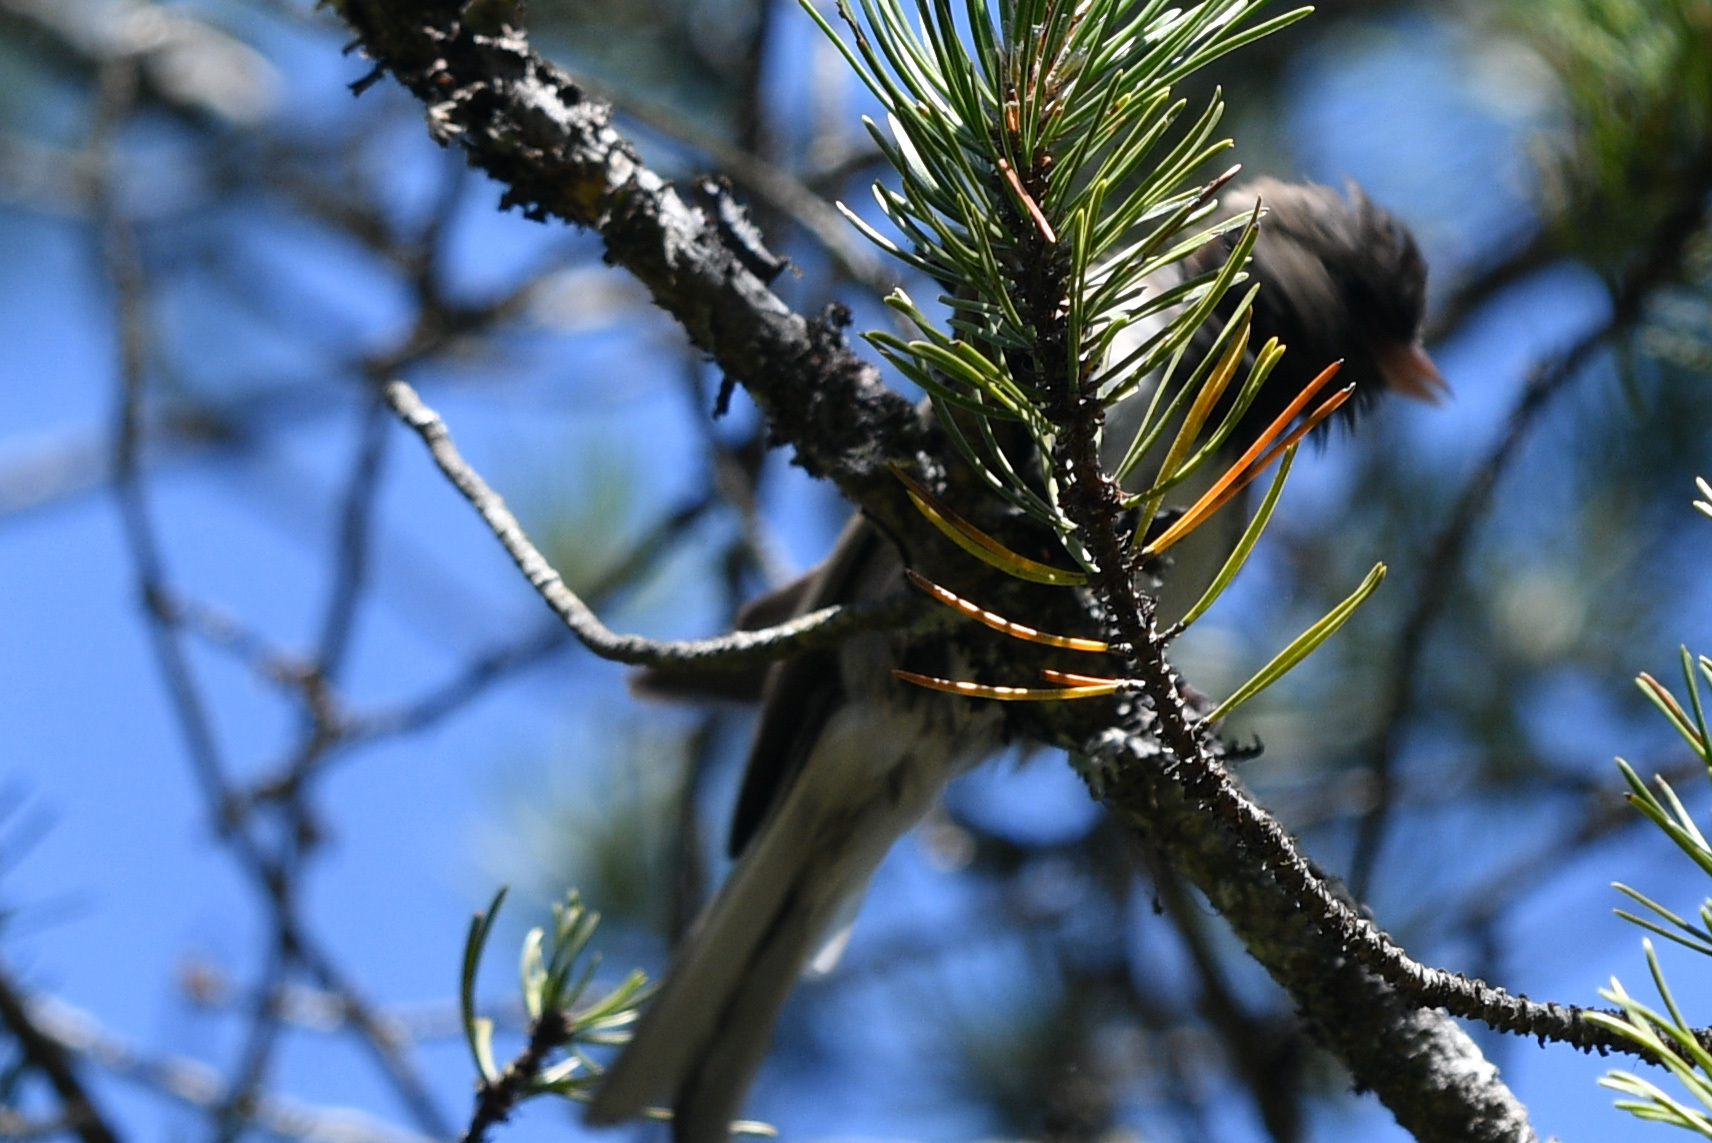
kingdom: Animalia
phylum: Chordata
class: Aves
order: Passeriformes
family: Passerellidae
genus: Junco
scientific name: Junco hyemalis
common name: Dark-eyed junco
